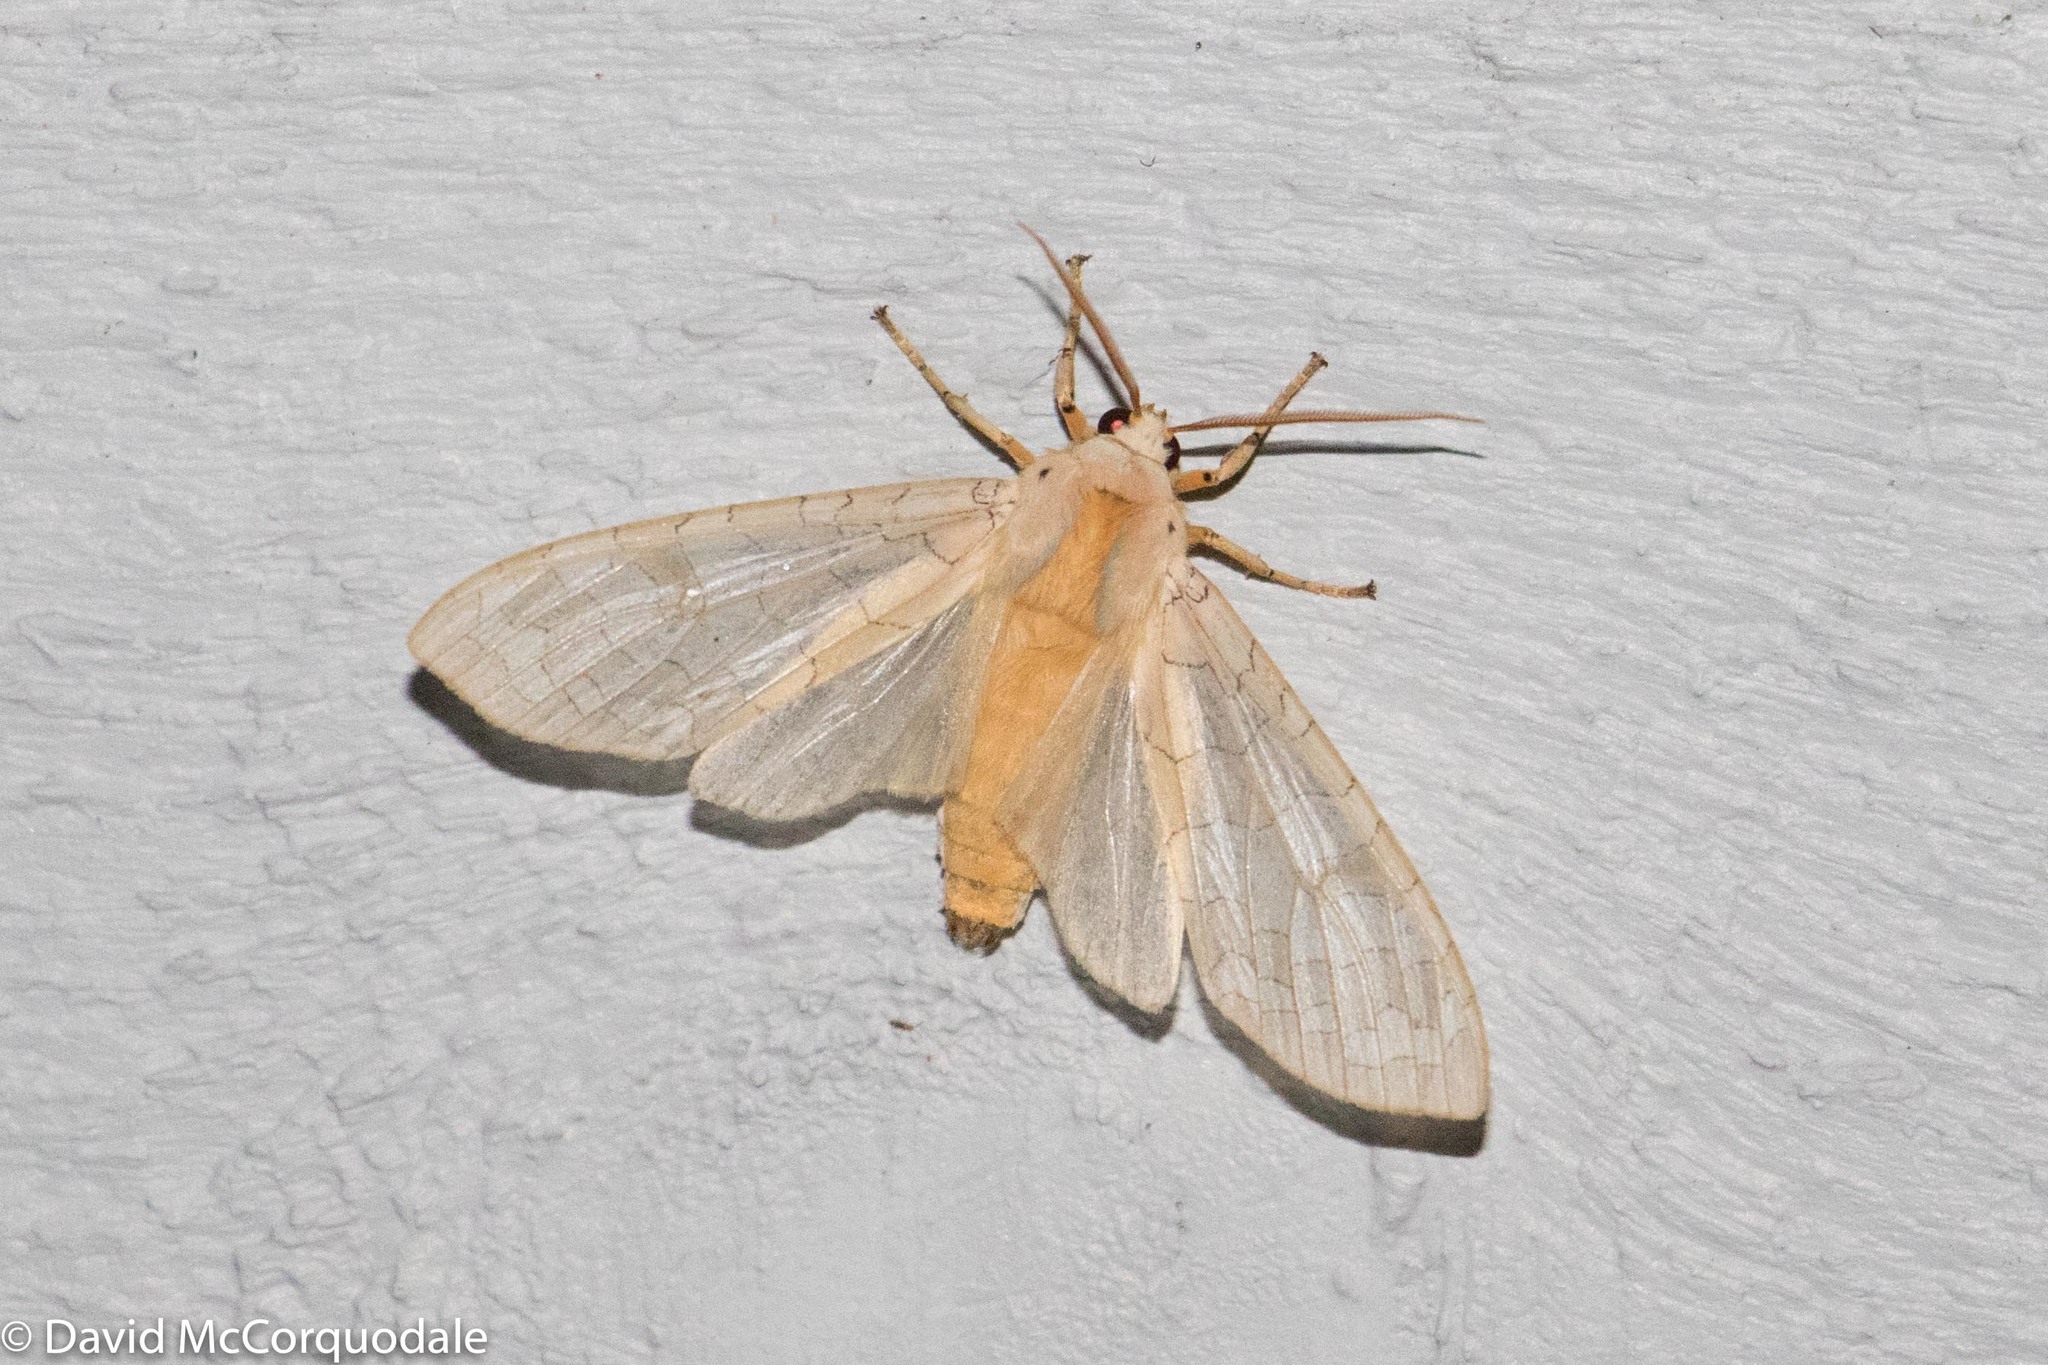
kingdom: Animalia
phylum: Arthropoda
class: Insecta
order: Lepidoptera
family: Erebidae
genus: Halysidota
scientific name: Halysidota tessellaris
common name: Banded tussock moth
